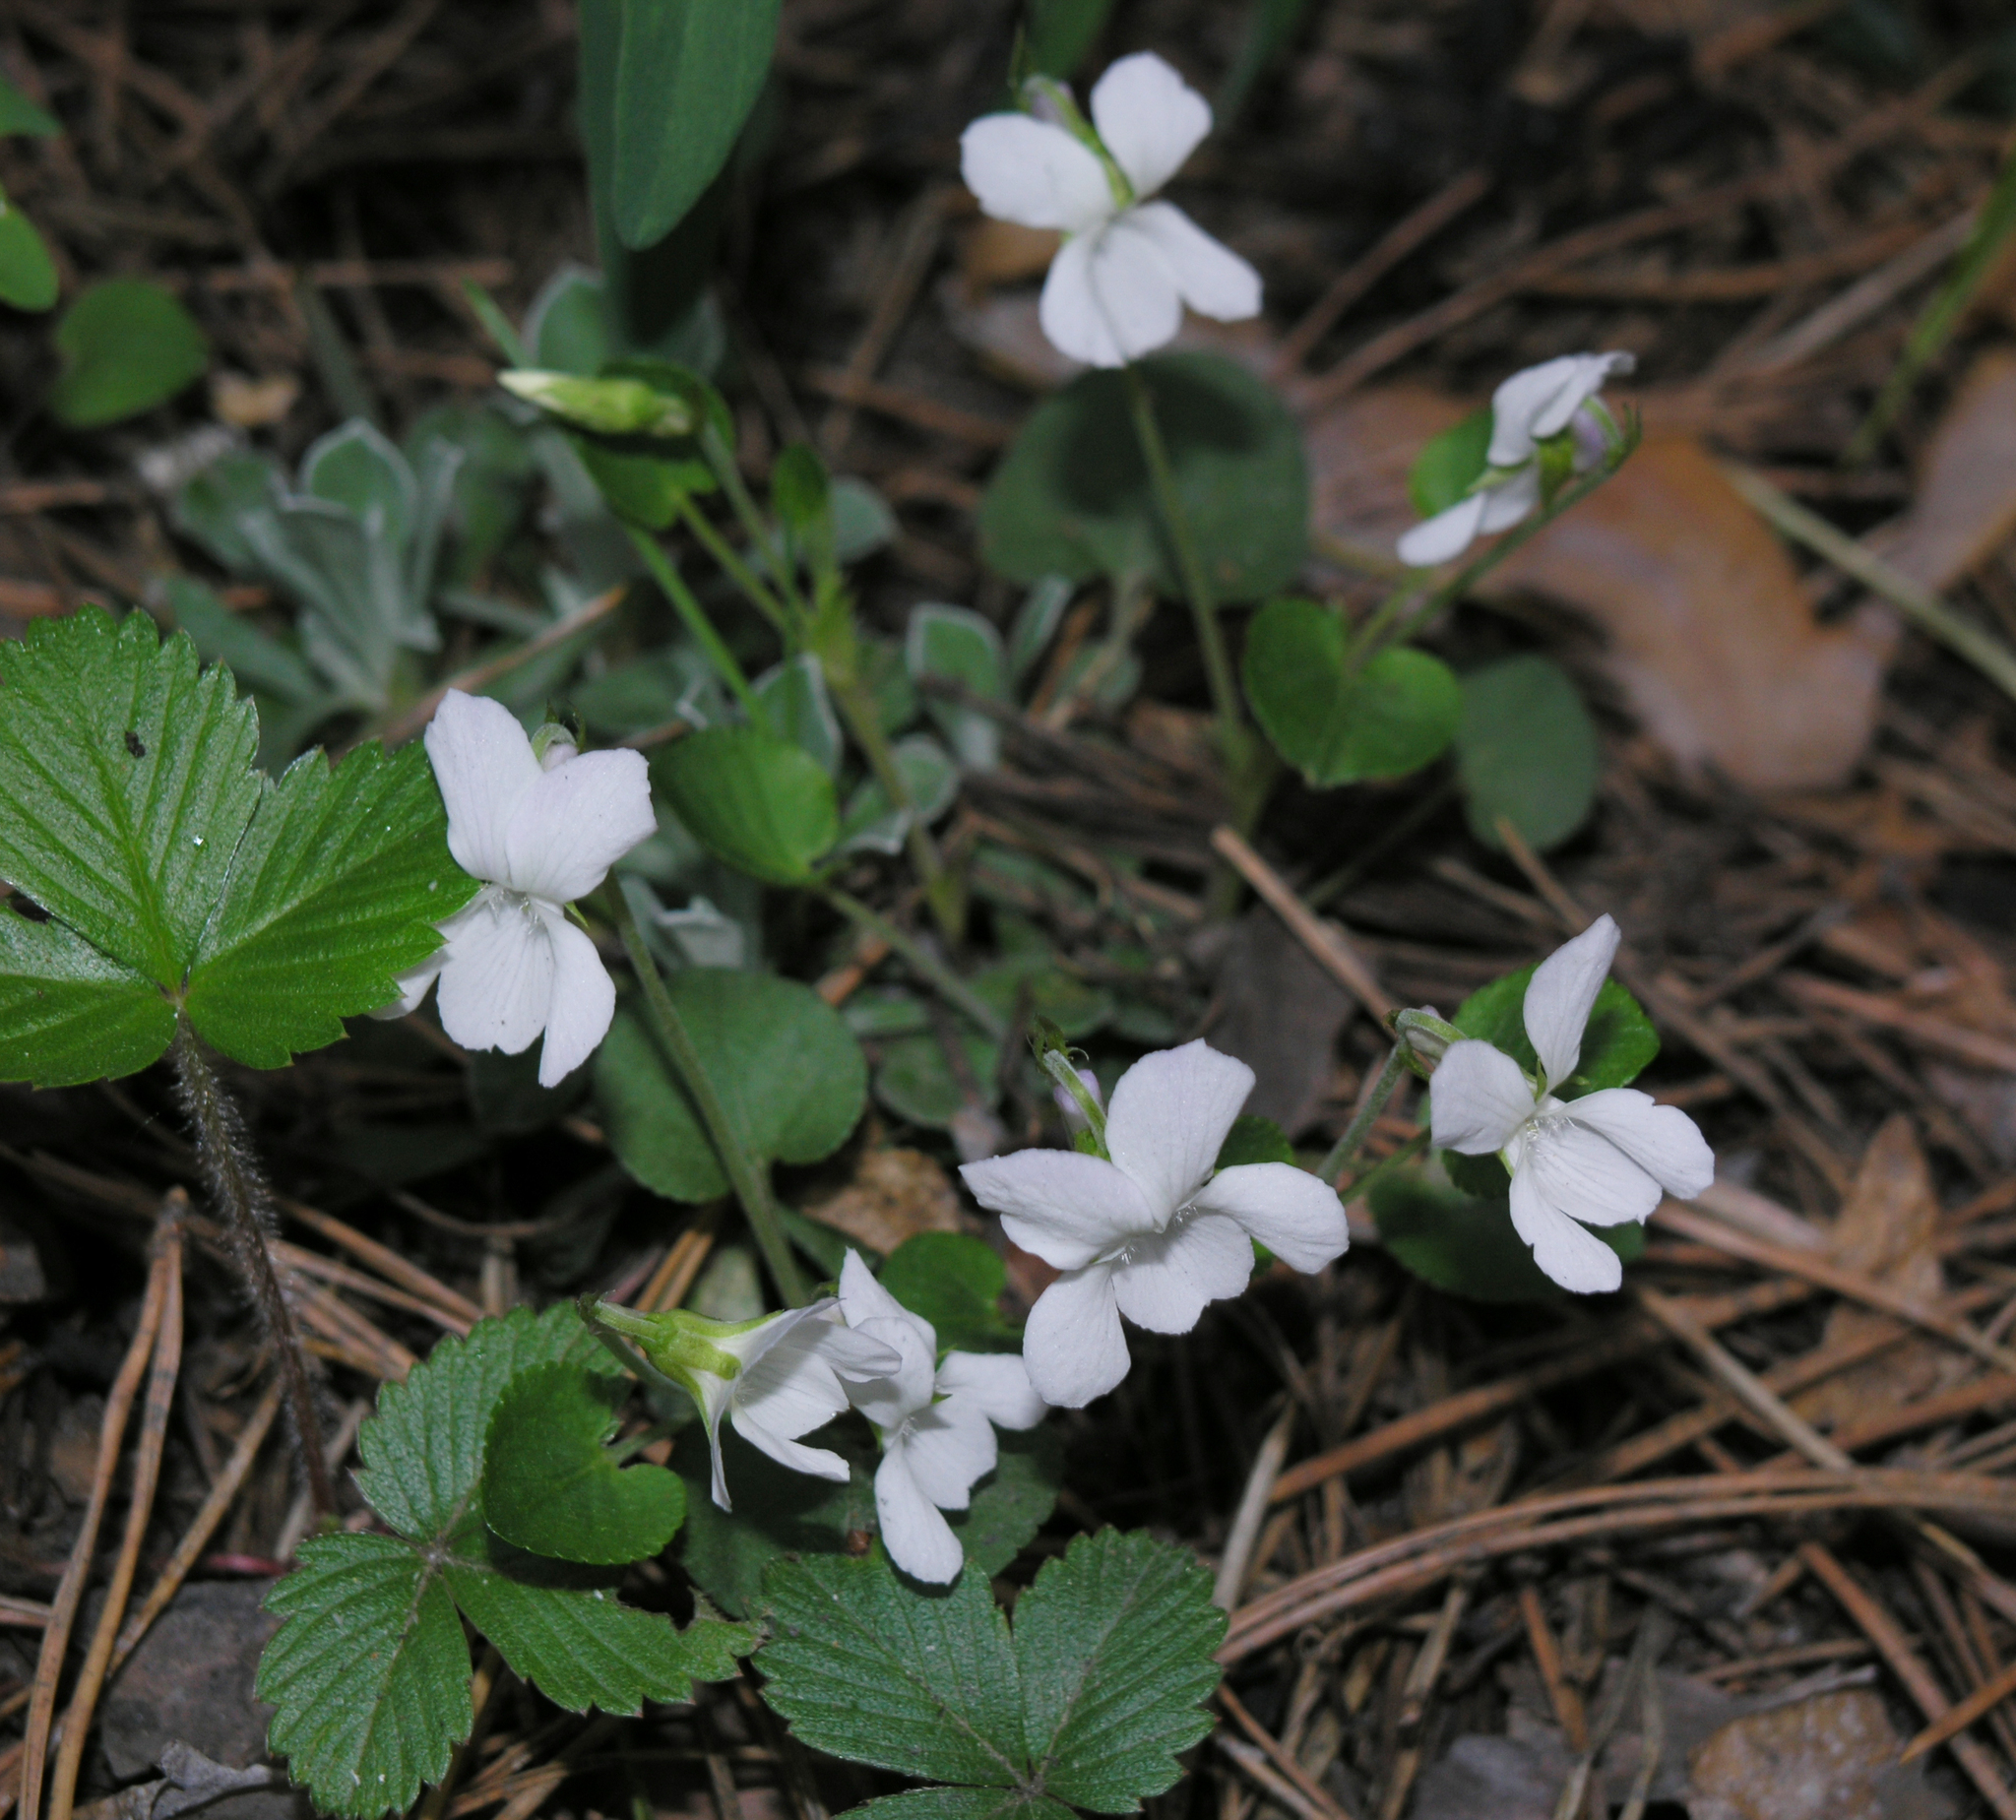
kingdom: Plantae
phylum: Tracheophyta
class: Magnoliopsida
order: Malpighiales
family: Violaceae
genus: Viola
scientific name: Viola rupestris
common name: Teesdale violet
